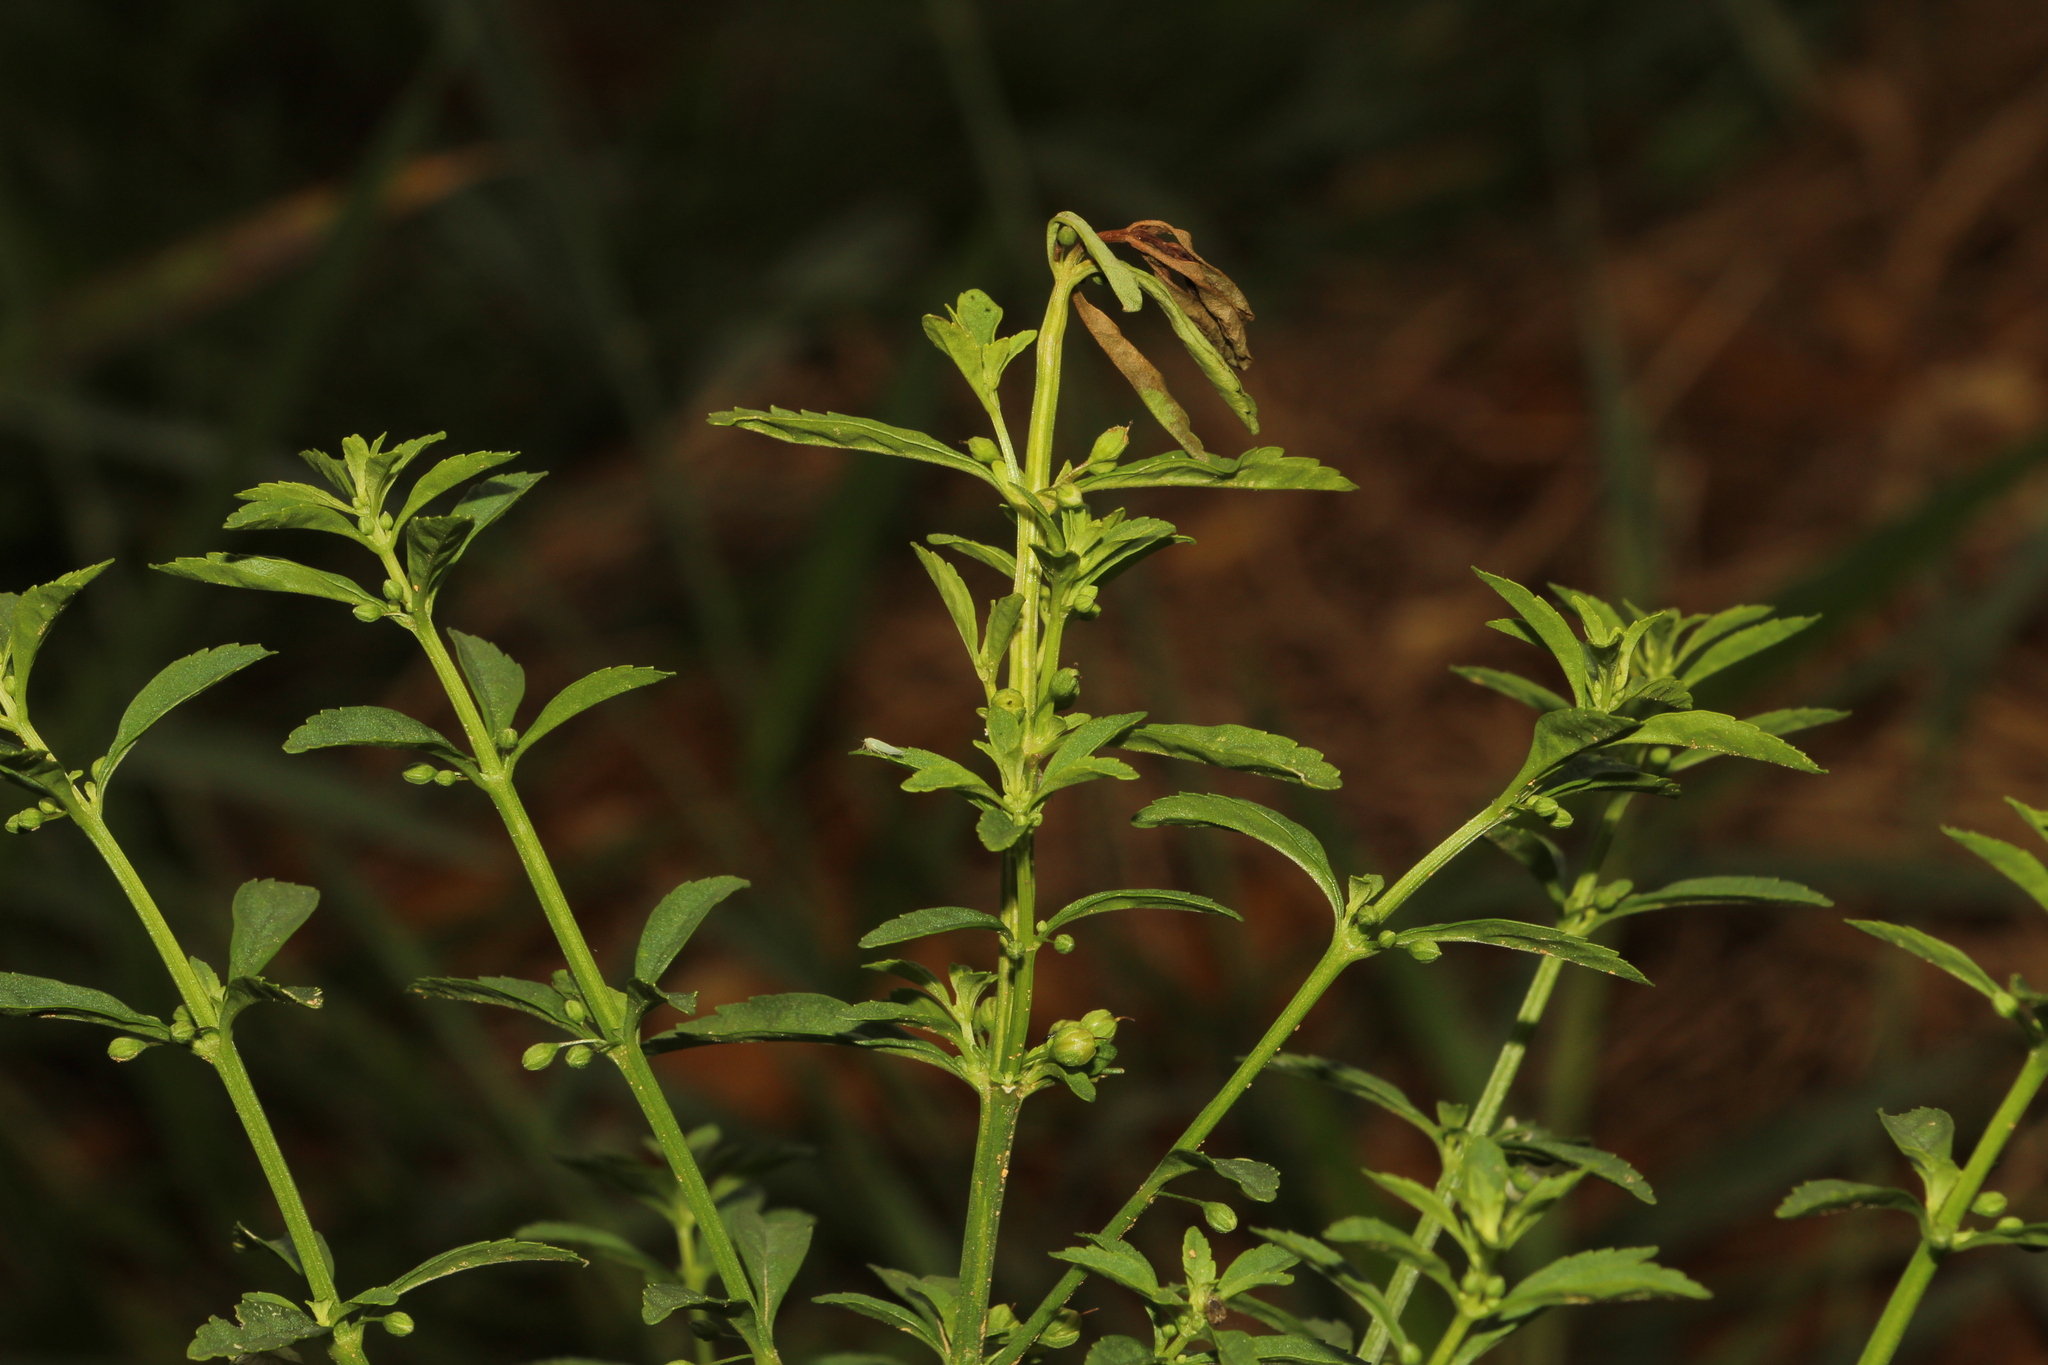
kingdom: Plantae
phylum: Tracheophyta
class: Magnoliopsida
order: Lamiales
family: Plantaginaceae
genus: Scoparia
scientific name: Scoparia dulcis
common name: Scoparia-weed
